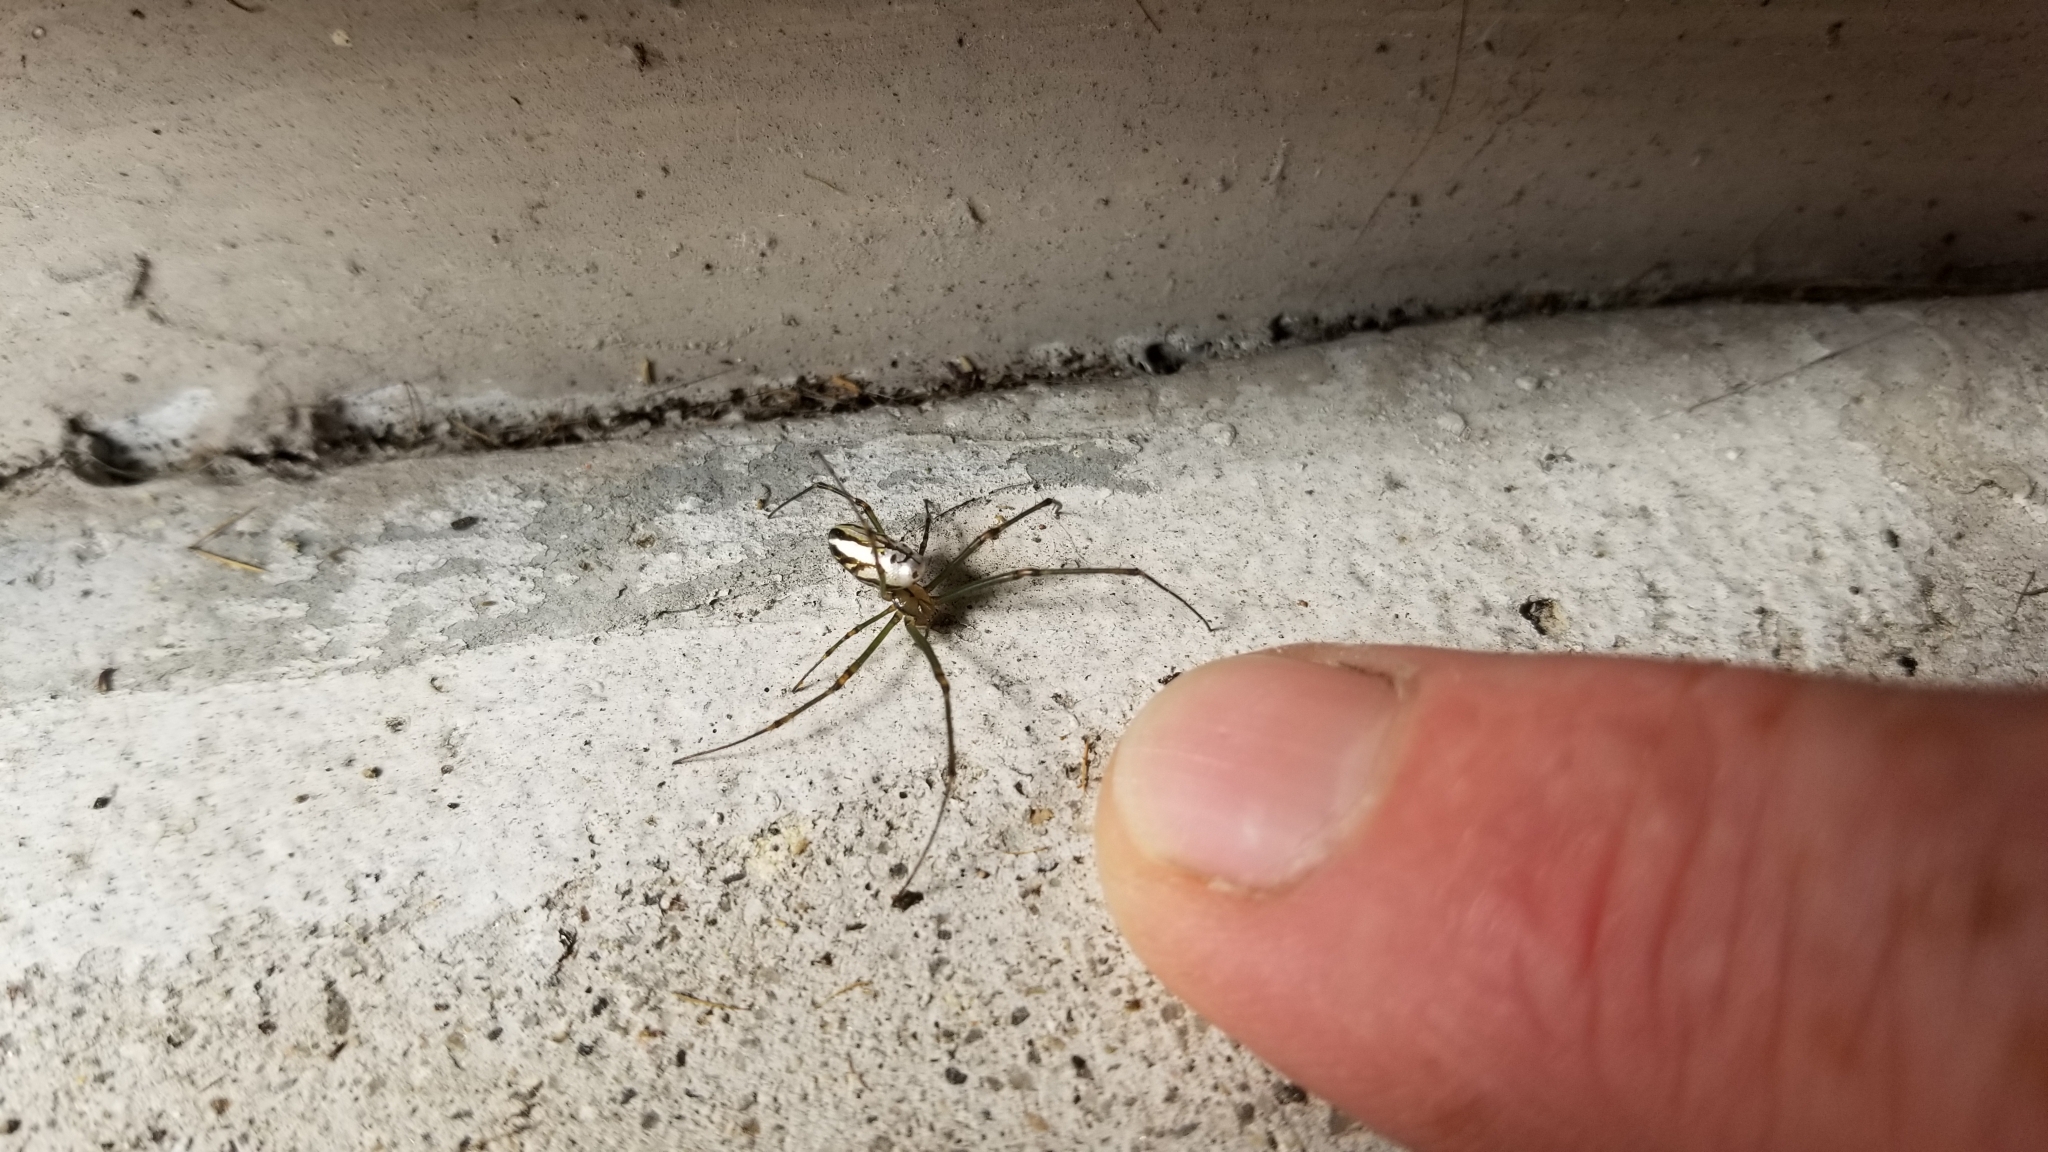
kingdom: Animalia
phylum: Arthropoda
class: Arachnida
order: Araneae
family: Tetragnathidae
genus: Leucauge
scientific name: Leucauge dromedaria
